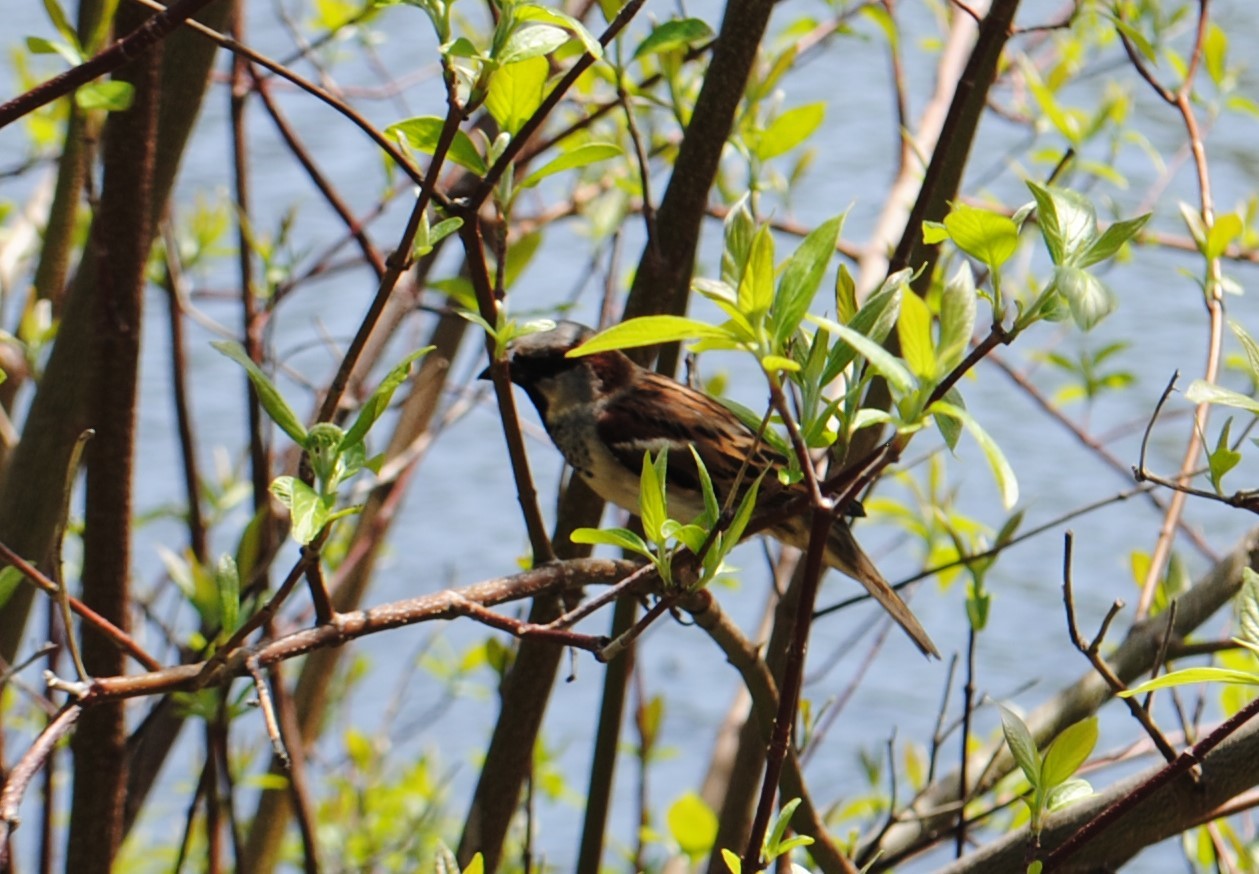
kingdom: Animalia
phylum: Chordata
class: Aves
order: Passeriformes
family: Passeridae
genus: Passer
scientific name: Passer domesticus
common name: House sparrow
